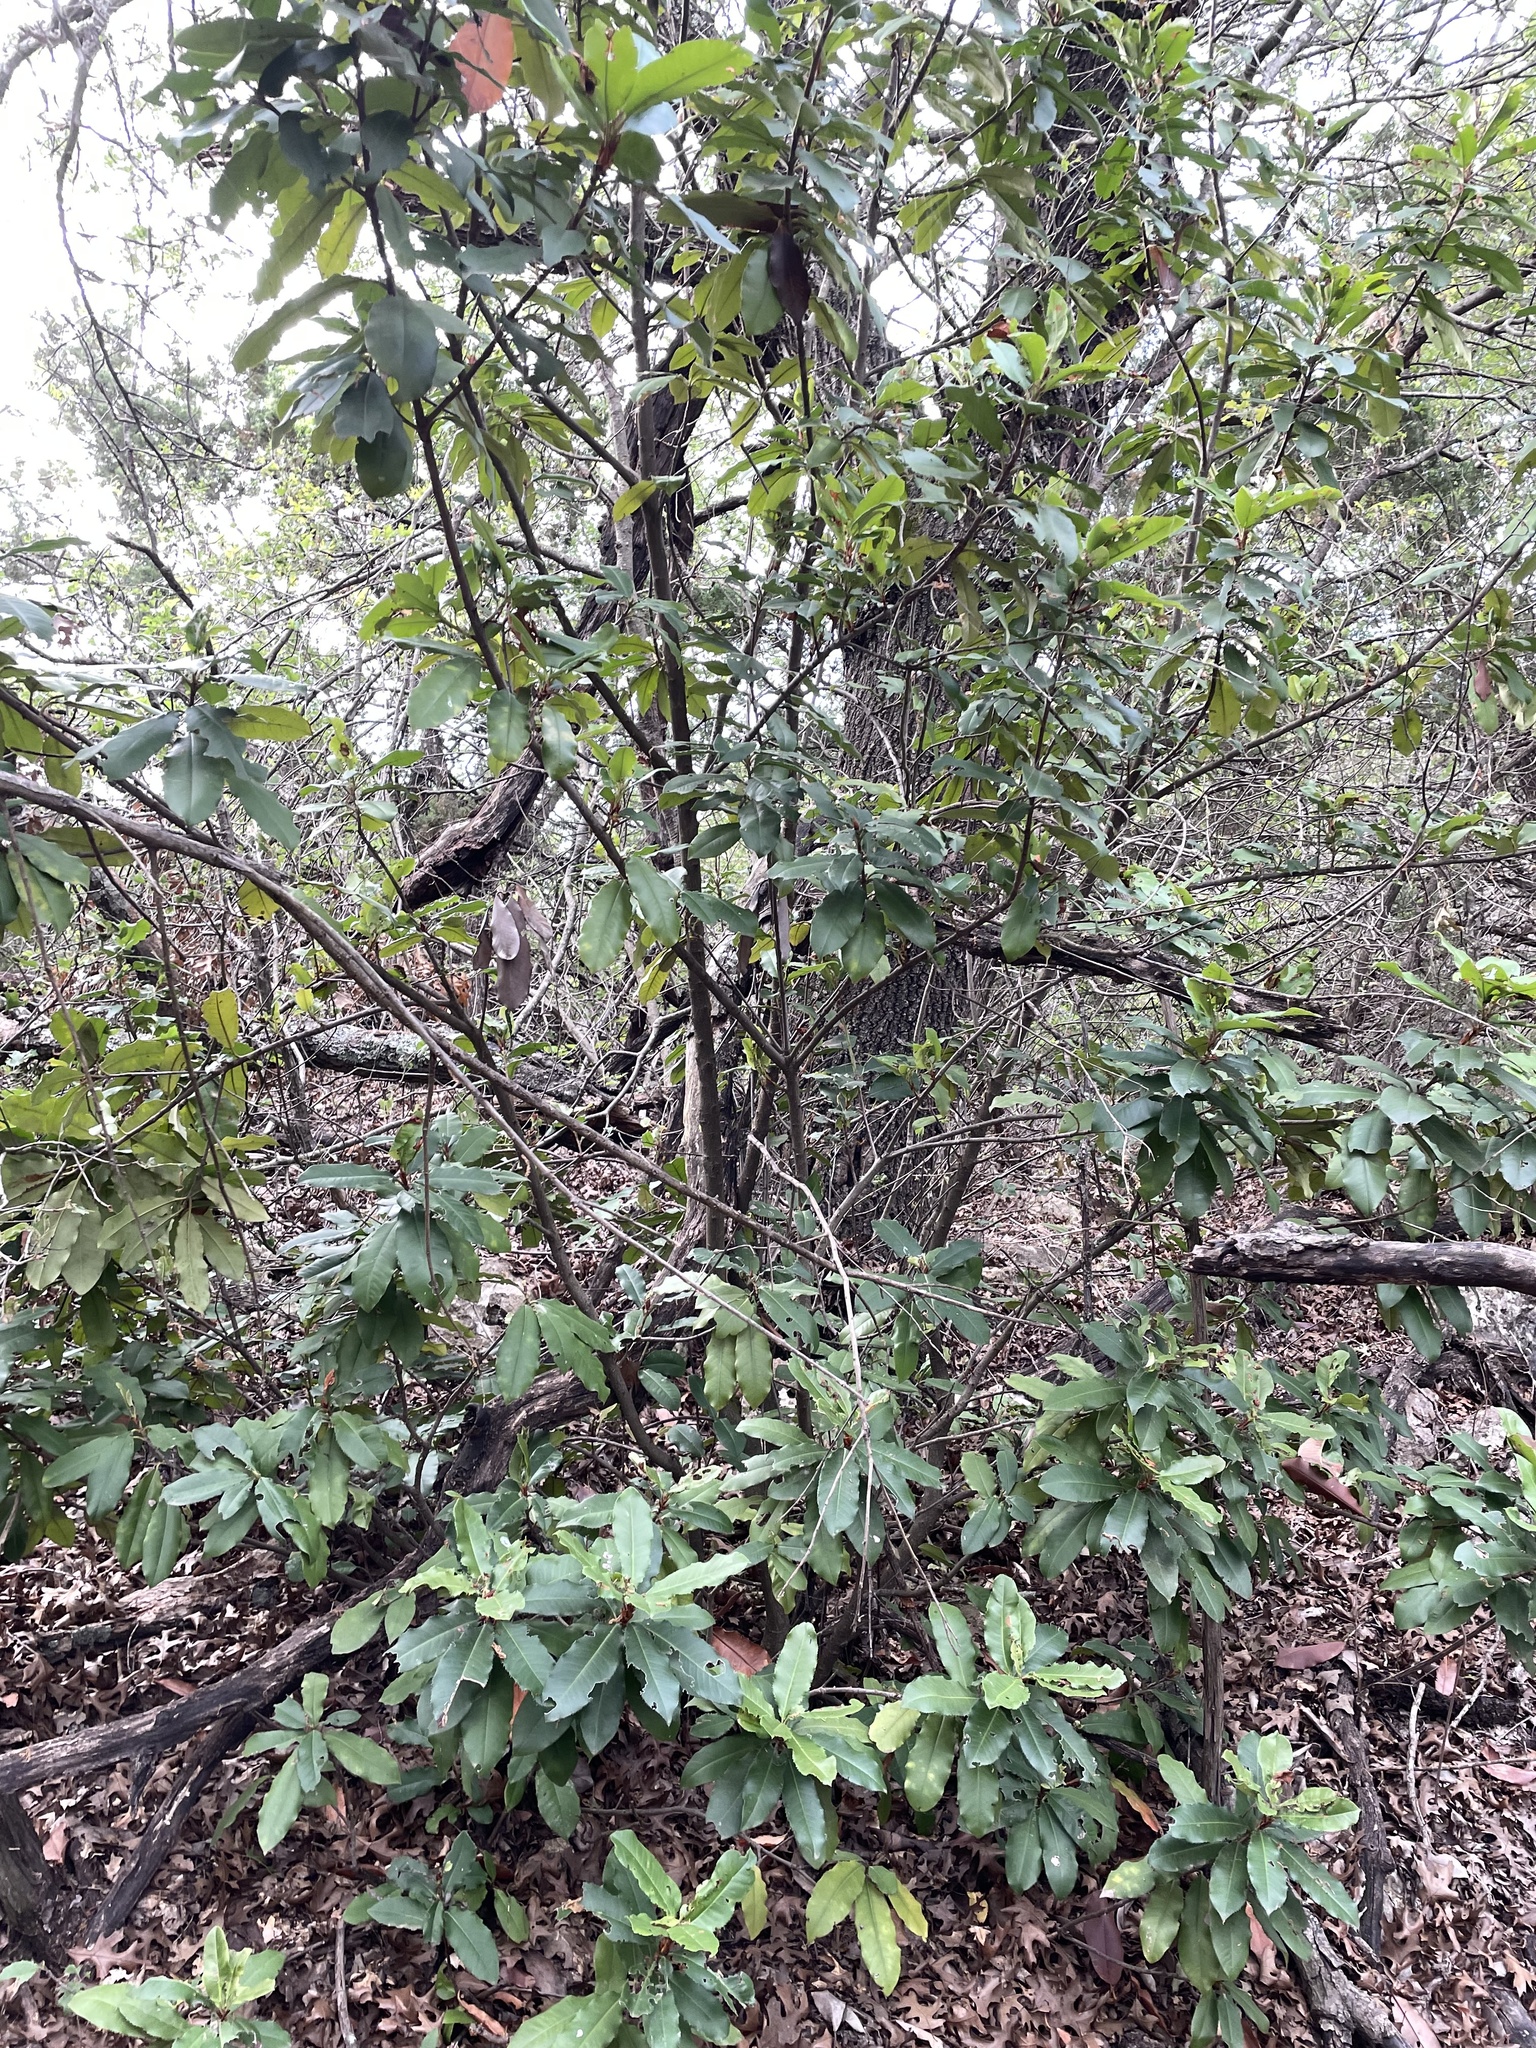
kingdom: Plantae
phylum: Tracheophyta
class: Magnoliopsida
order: Rosales
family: Rosaceae
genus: Photinia
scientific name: Photinia serratifolia
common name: Taiwanese photinia
